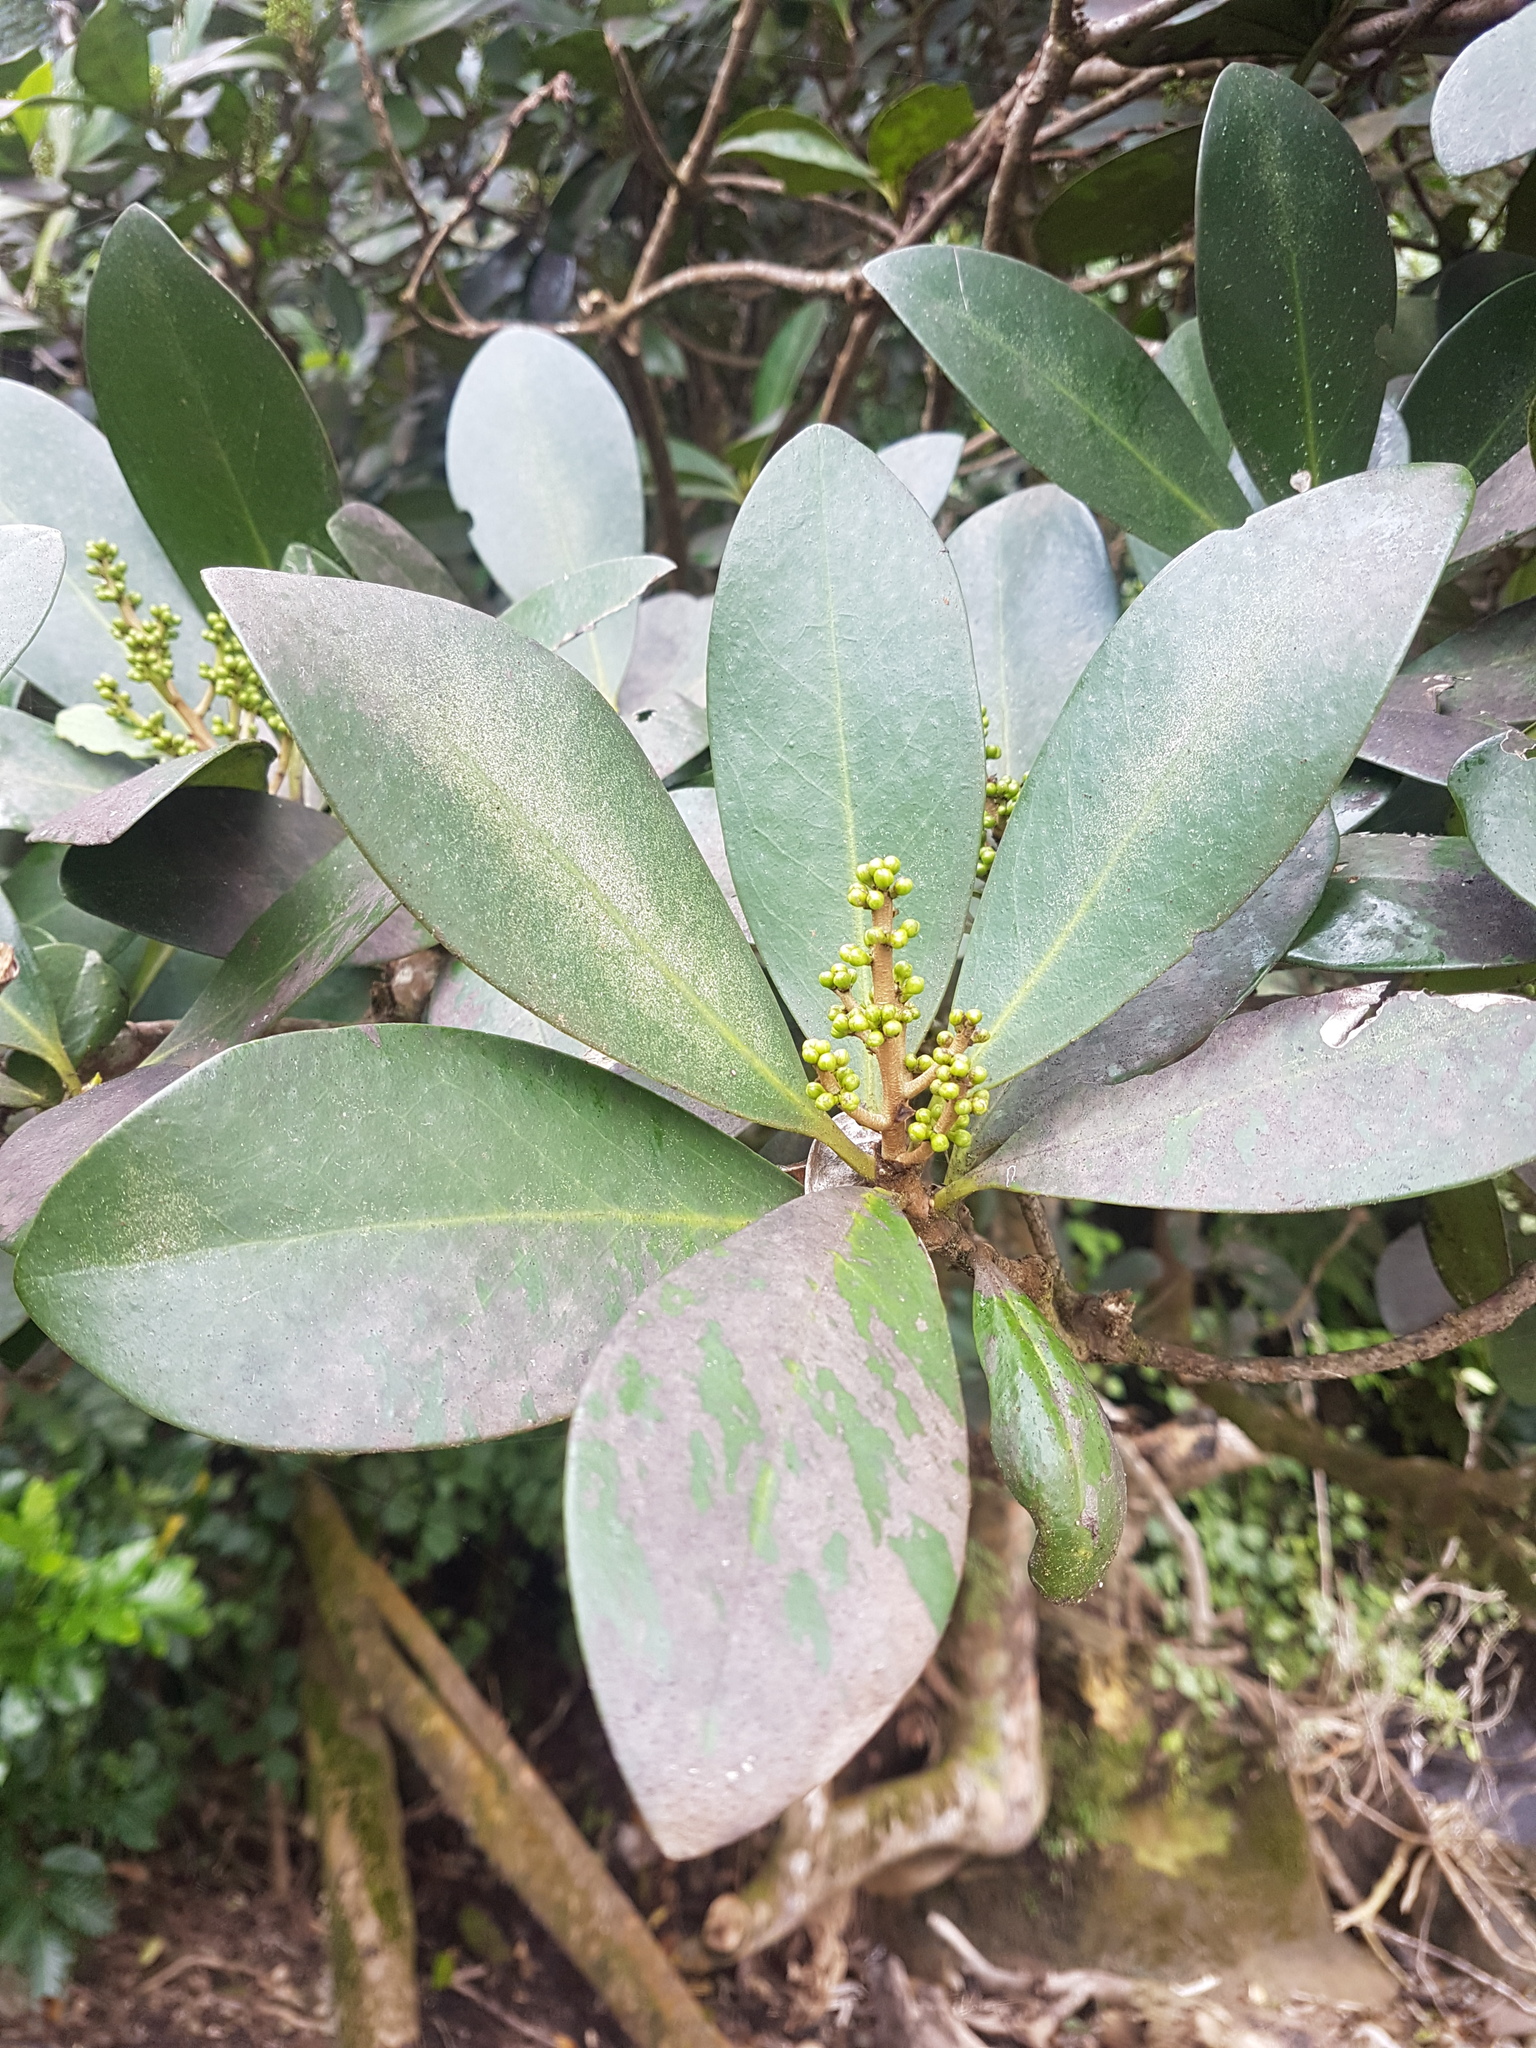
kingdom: Plantae
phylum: Tracheophyta
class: Magnoliopsida
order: Cucurbitales
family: Corynocarpaceae
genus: Corynocarpus
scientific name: Corynocarpus laevigatus
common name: New zealand laurel
